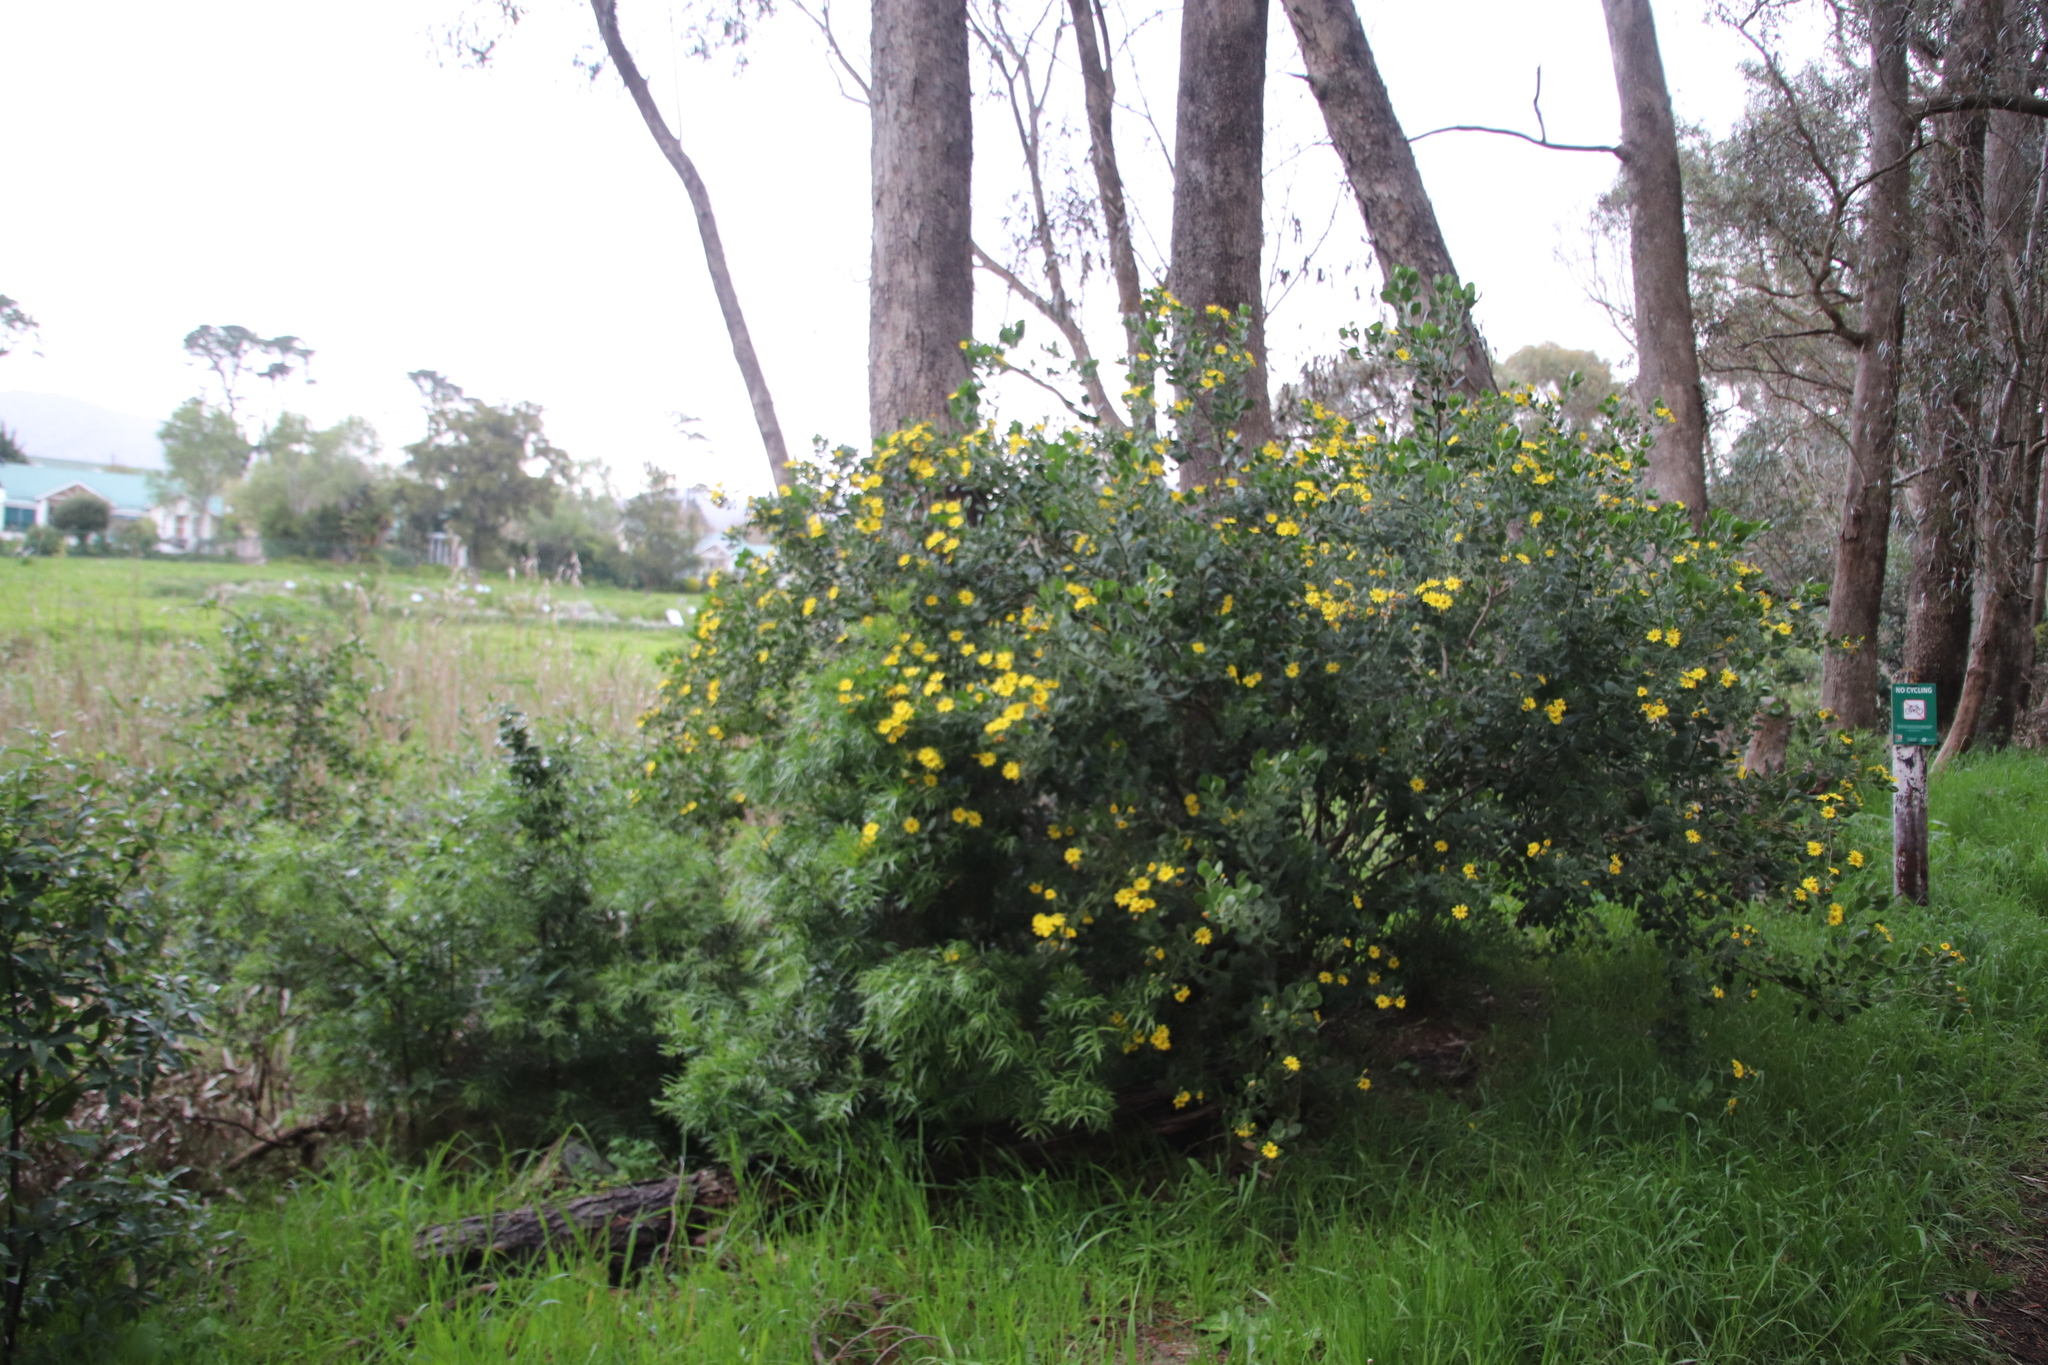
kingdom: Plantae
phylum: Tracheophyta
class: Magnoliopsida
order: Asterales
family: Asteraceae
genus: Osteospermum
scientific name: Osteospermum moniliferum
